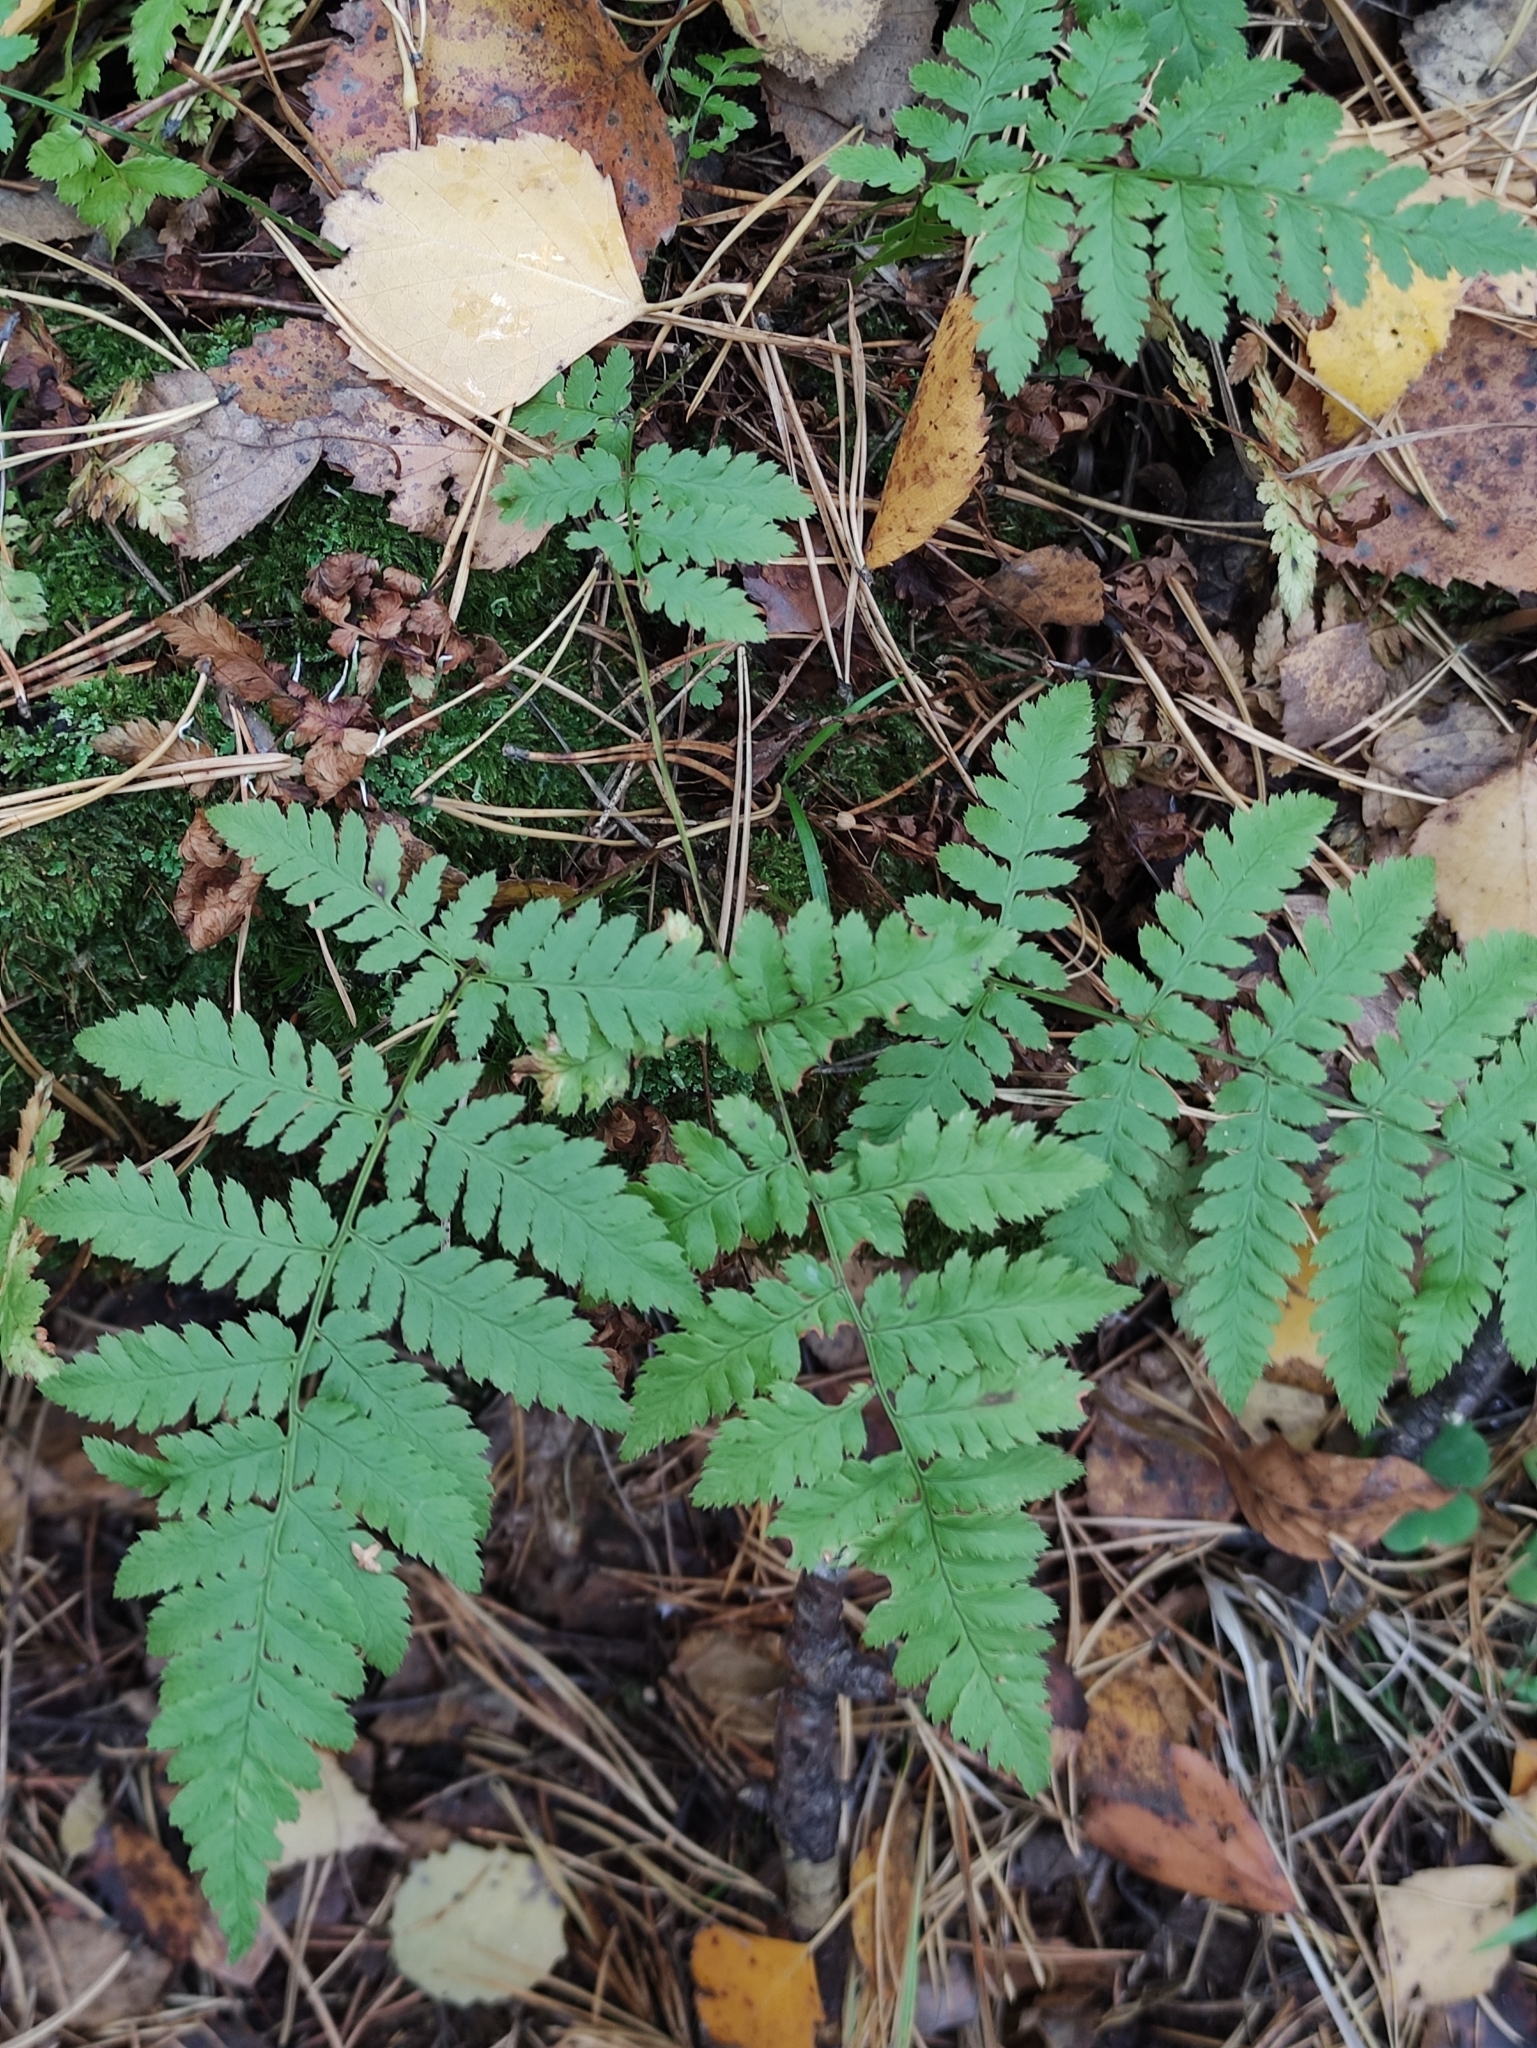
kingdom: Plantae
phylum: Tracheophyta
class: Polypodiopsida
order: Polypodiales
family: Dryopteridaceae
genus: Dryopteris
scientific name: Dryopteris carthusiana
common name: Narrow buckler-fern
